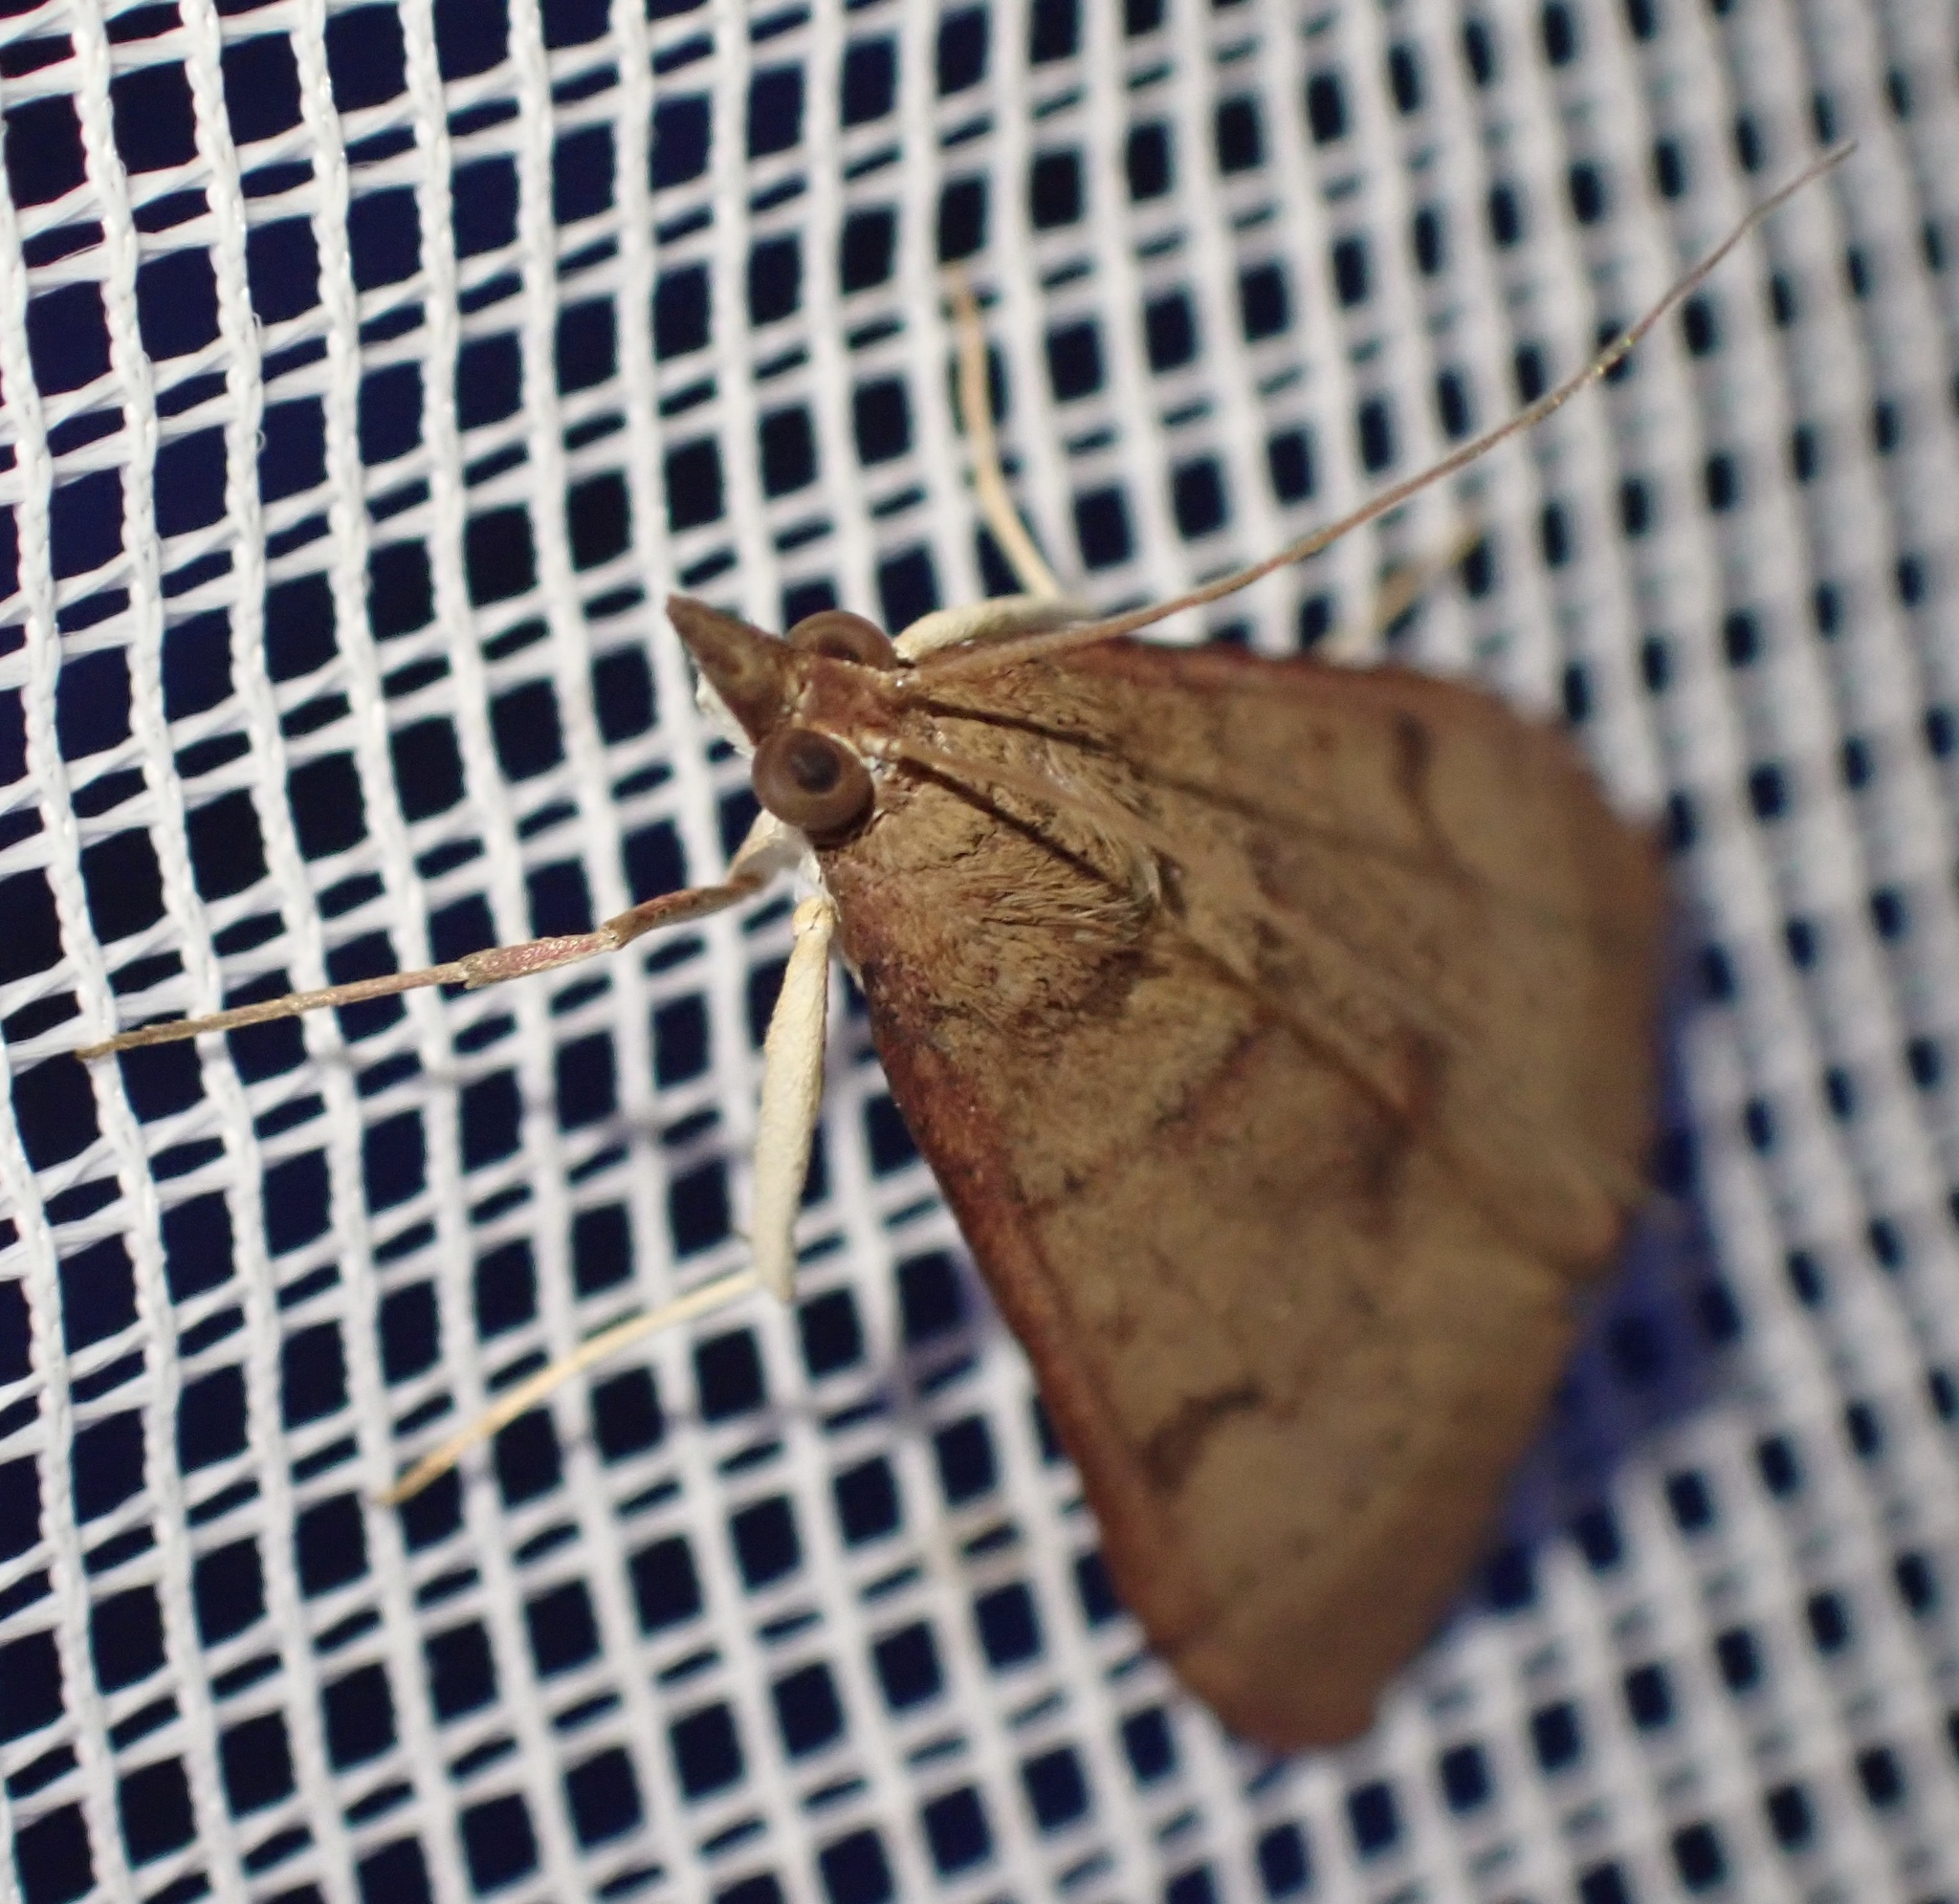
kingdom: Animalia
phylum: Arthropoda
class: Insecta
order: Lepidoptera
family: Crambidae
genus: Uresiphita
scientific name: Uresiphita gilvata
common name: Yellow-underwing pearl
